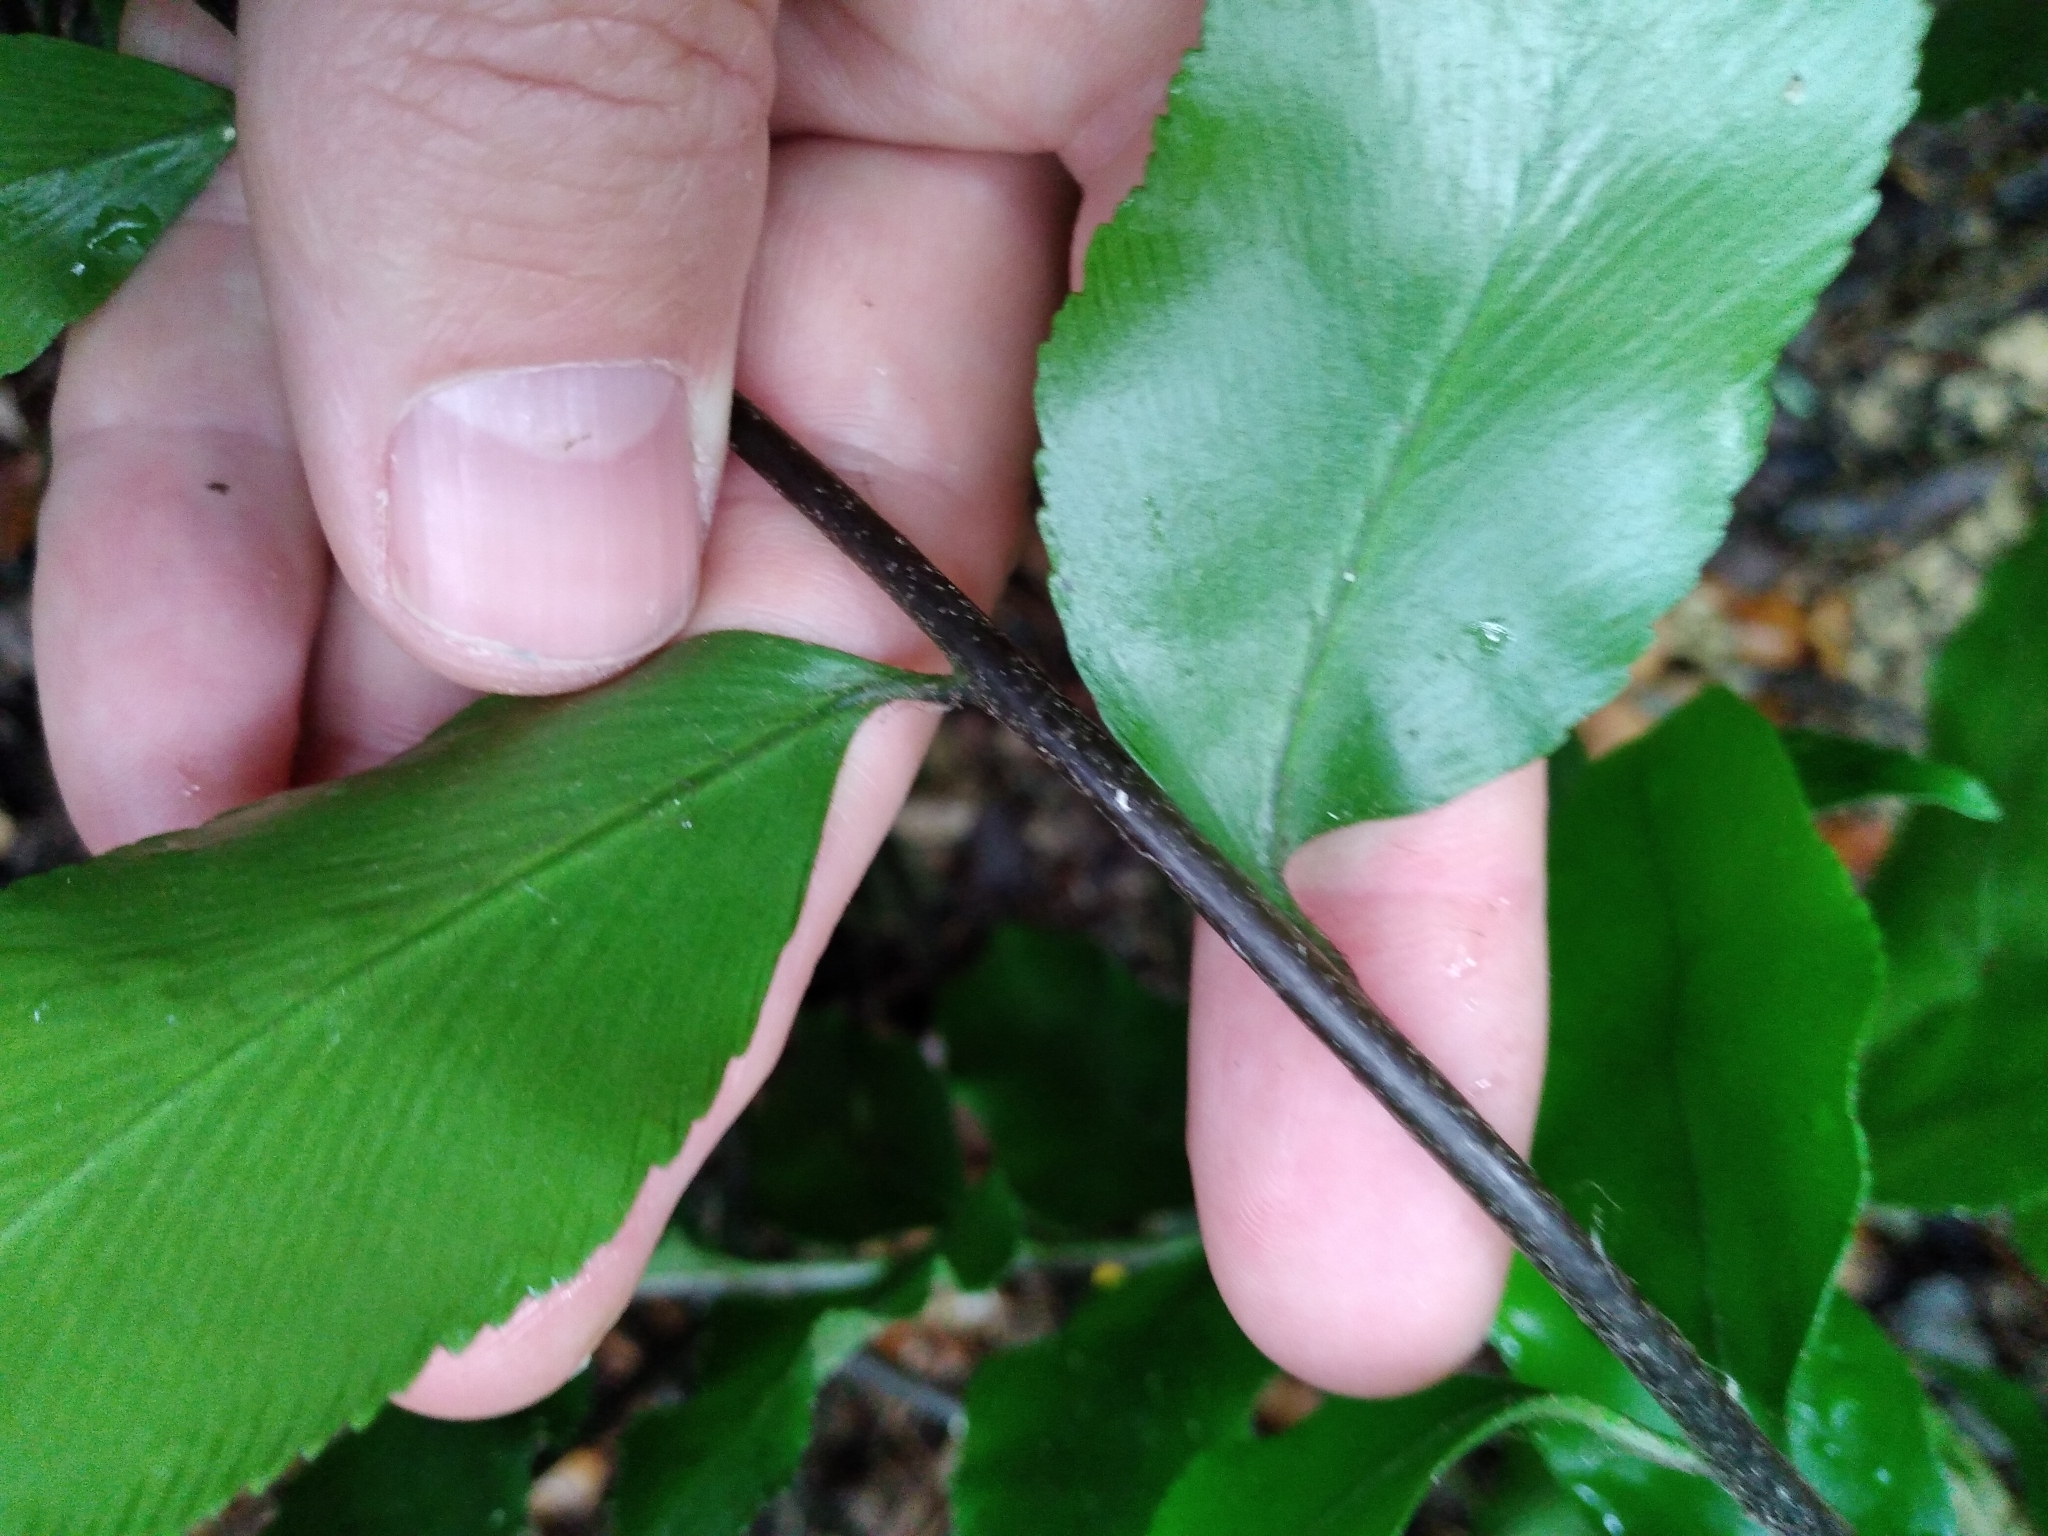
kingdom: Plantae
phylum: Tracheophyta
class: Polypodiopsida
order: Polypodiales
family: Aspleniaceae
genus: Asplenium
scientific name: Asplenium oblongifolium
